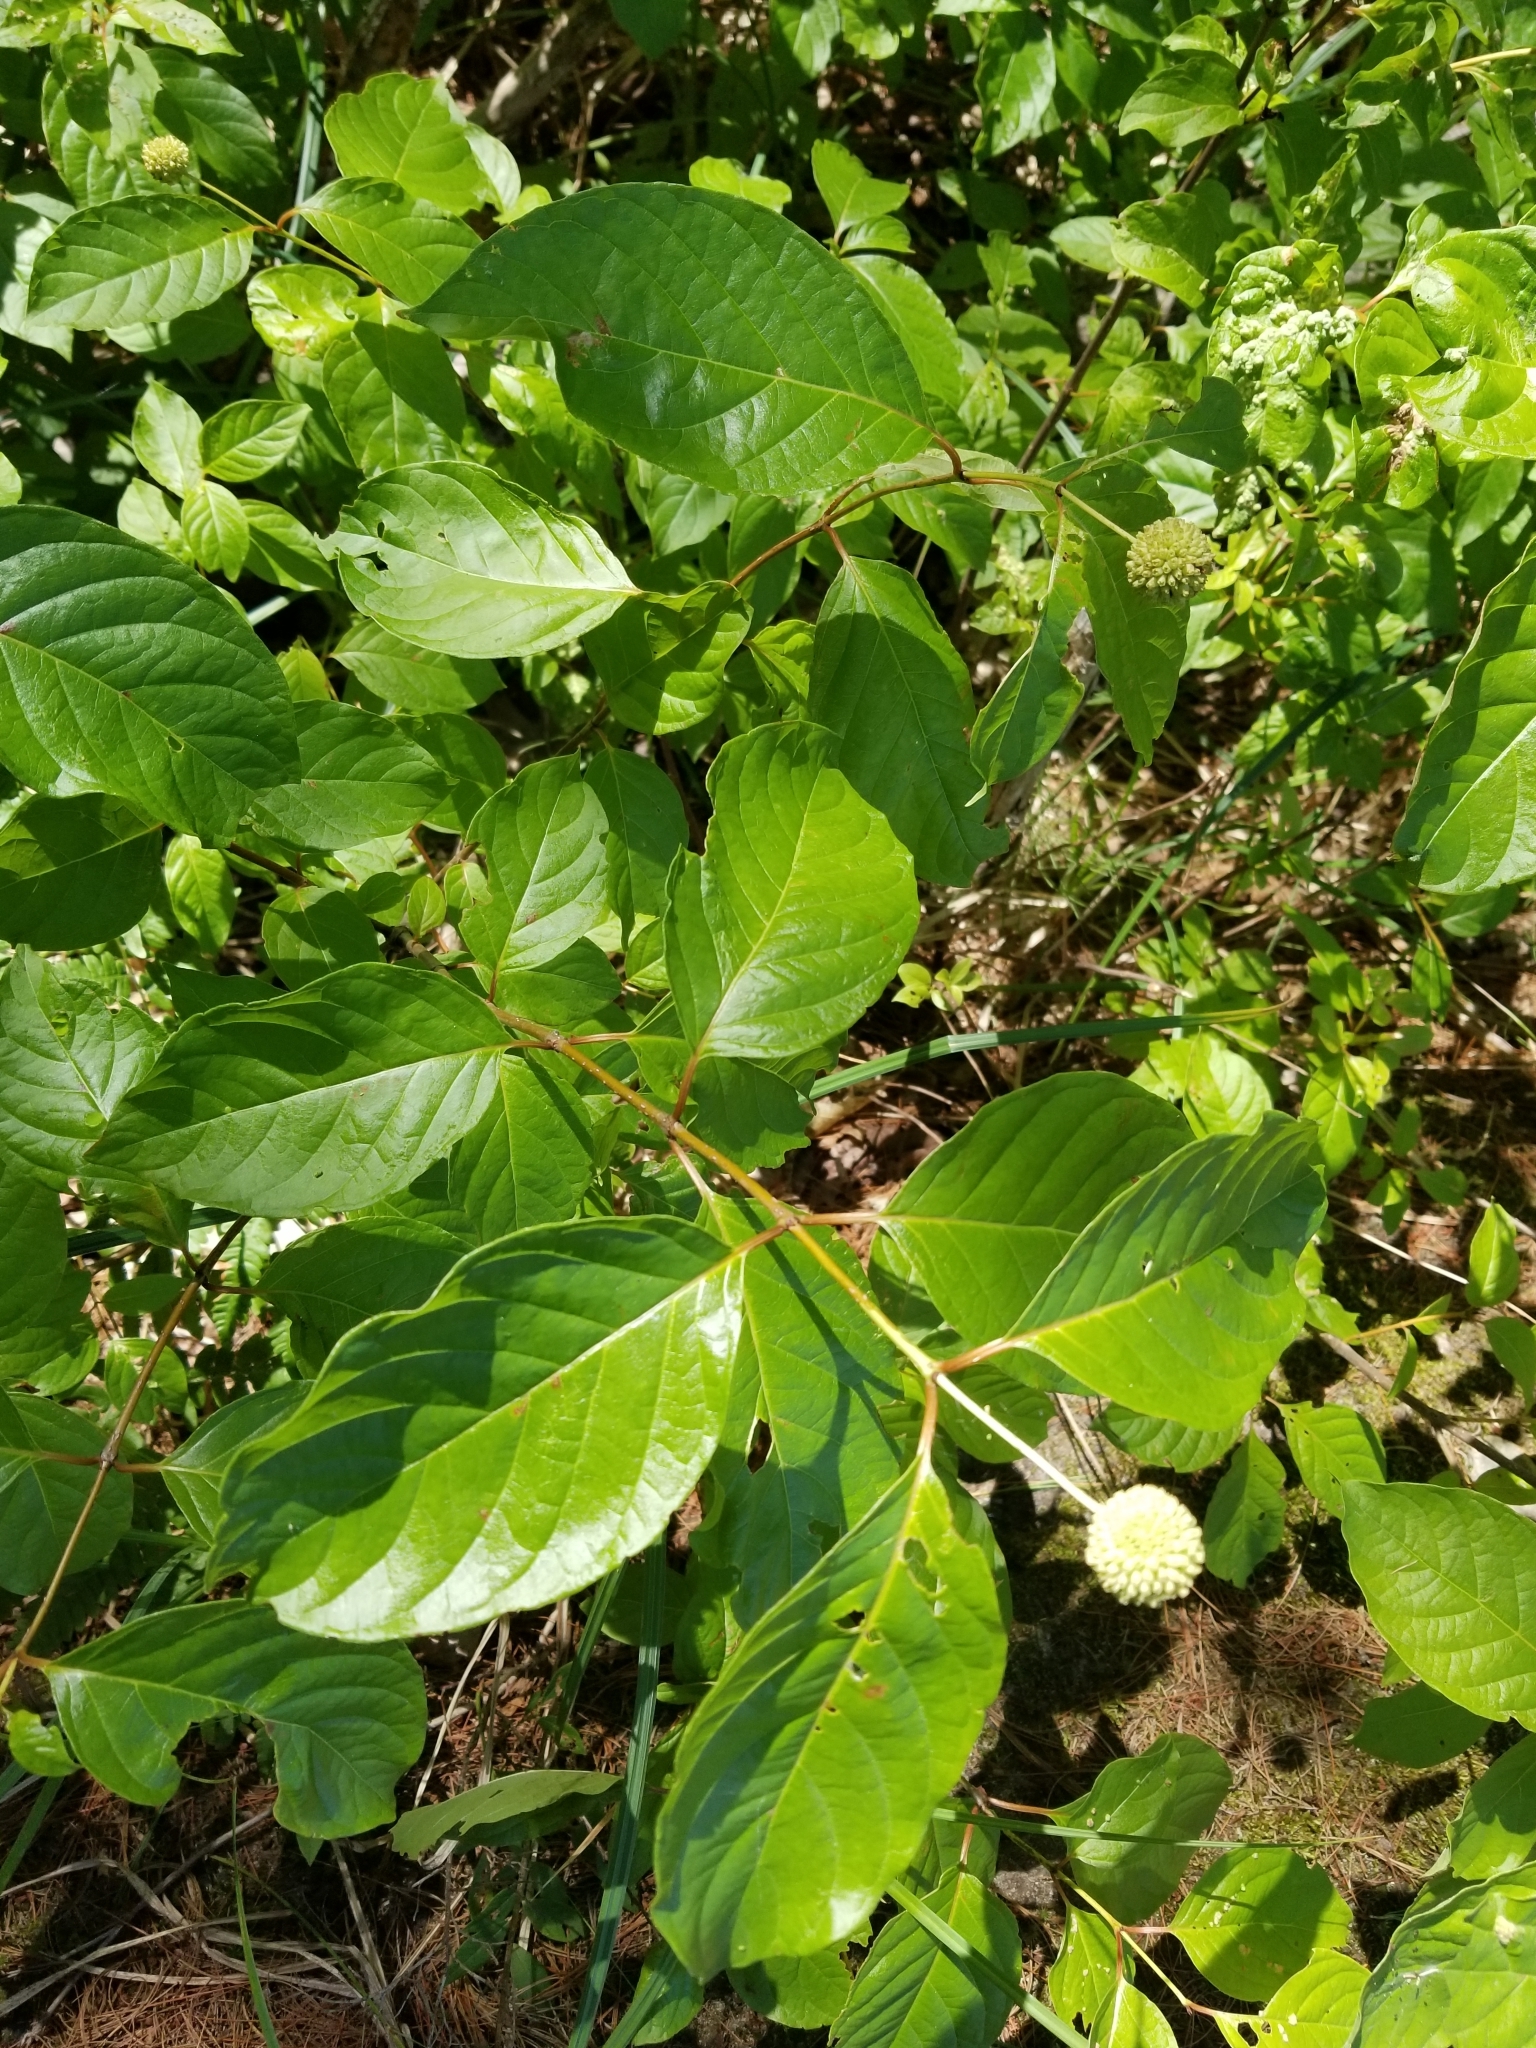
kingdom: Plantae
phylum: Tracheophyta
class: Magnoliopsida
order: Gentianales
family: Rubiaceae
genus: Cephalanthus
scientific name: Cephalanthus occidentalis
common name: Button-willow
